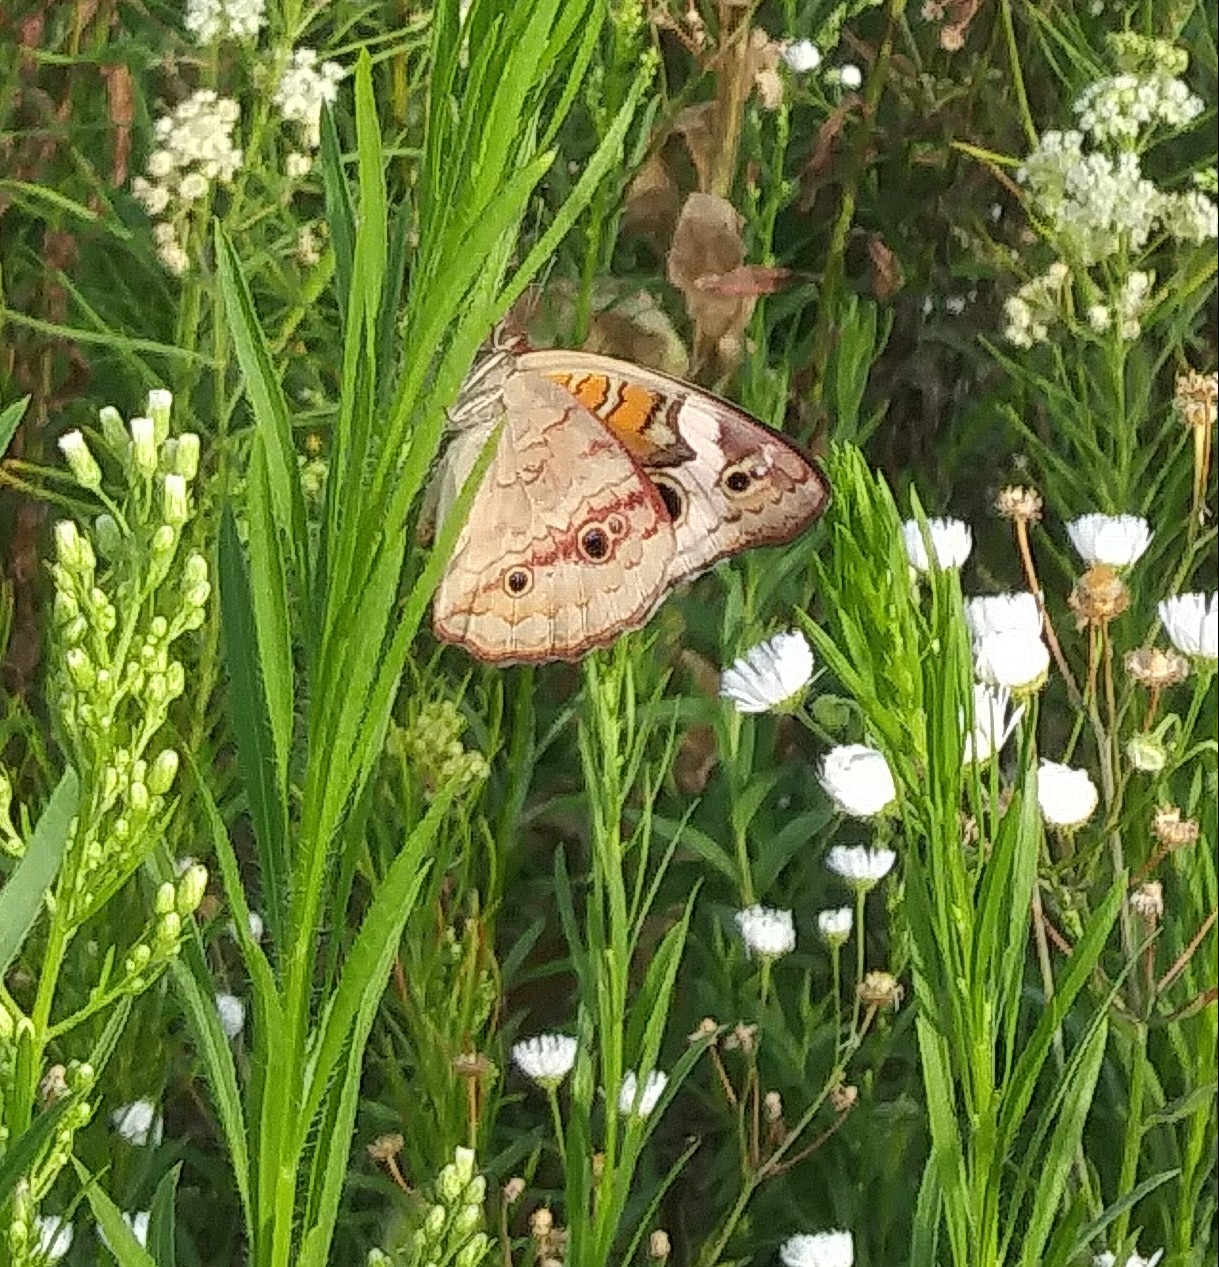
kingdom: Animalia
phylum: Arthropoda
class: Insecta
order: Lepidoptera
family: Nymphalidae
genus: Junonia
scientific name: Junonia coenia
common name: Common buckeye
